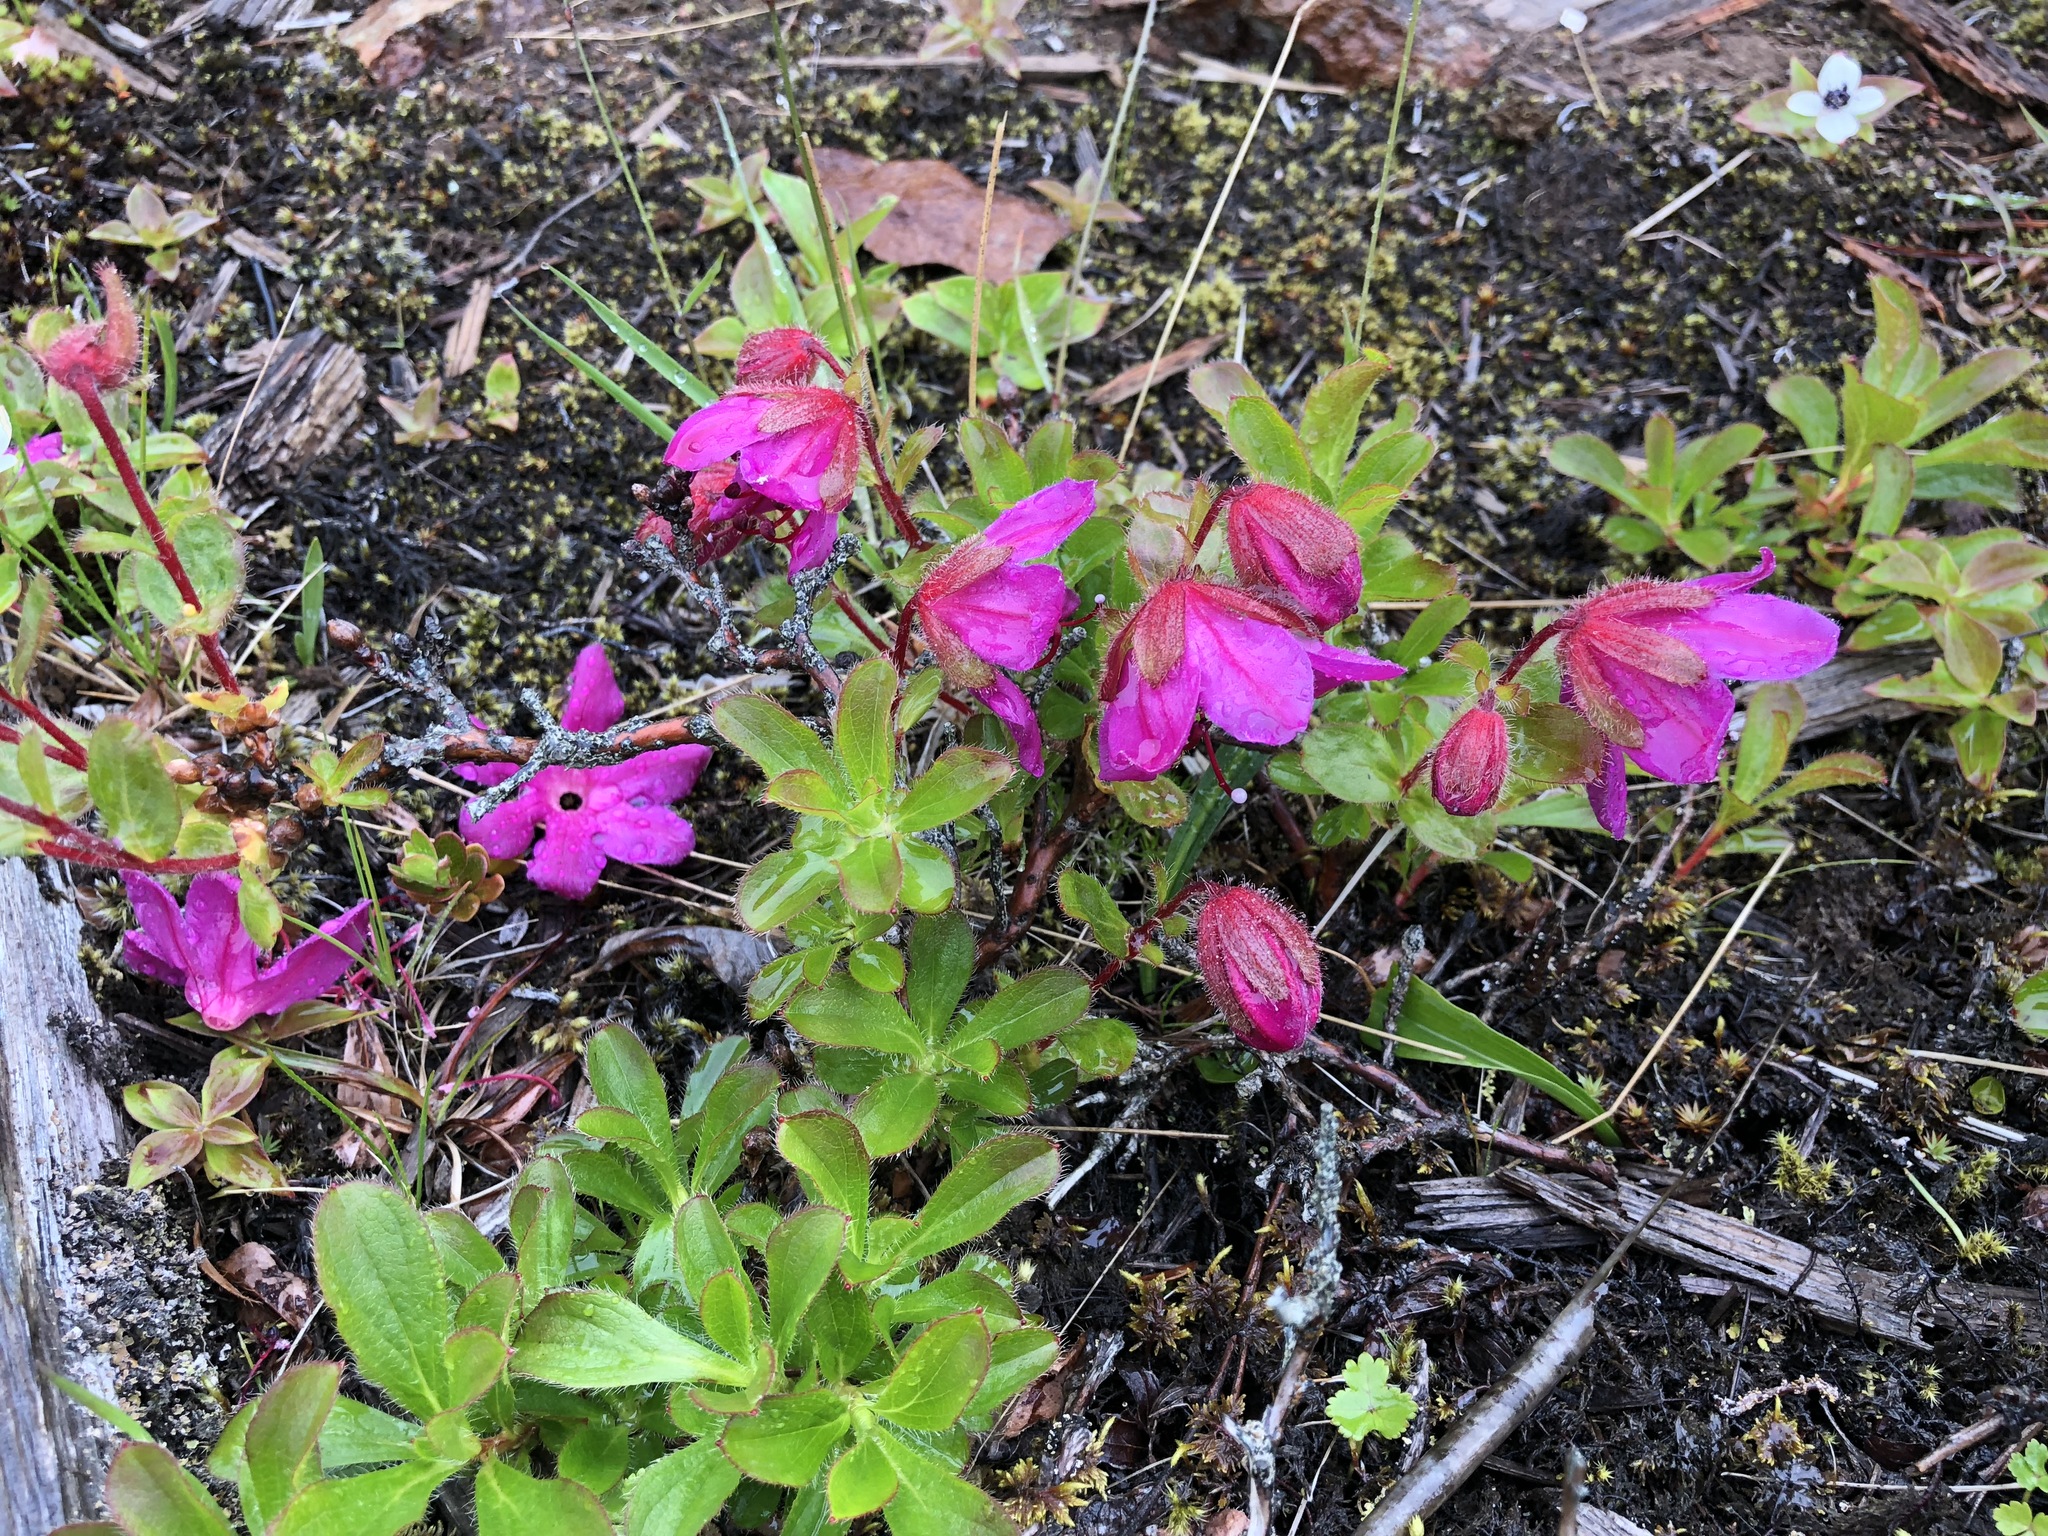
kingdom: Plantae
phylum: Tracheophyta
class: Magnoliopsida
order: Ericales
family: Ericaceae
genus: Rhododendron
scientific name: Rhododendron camtschaticum
